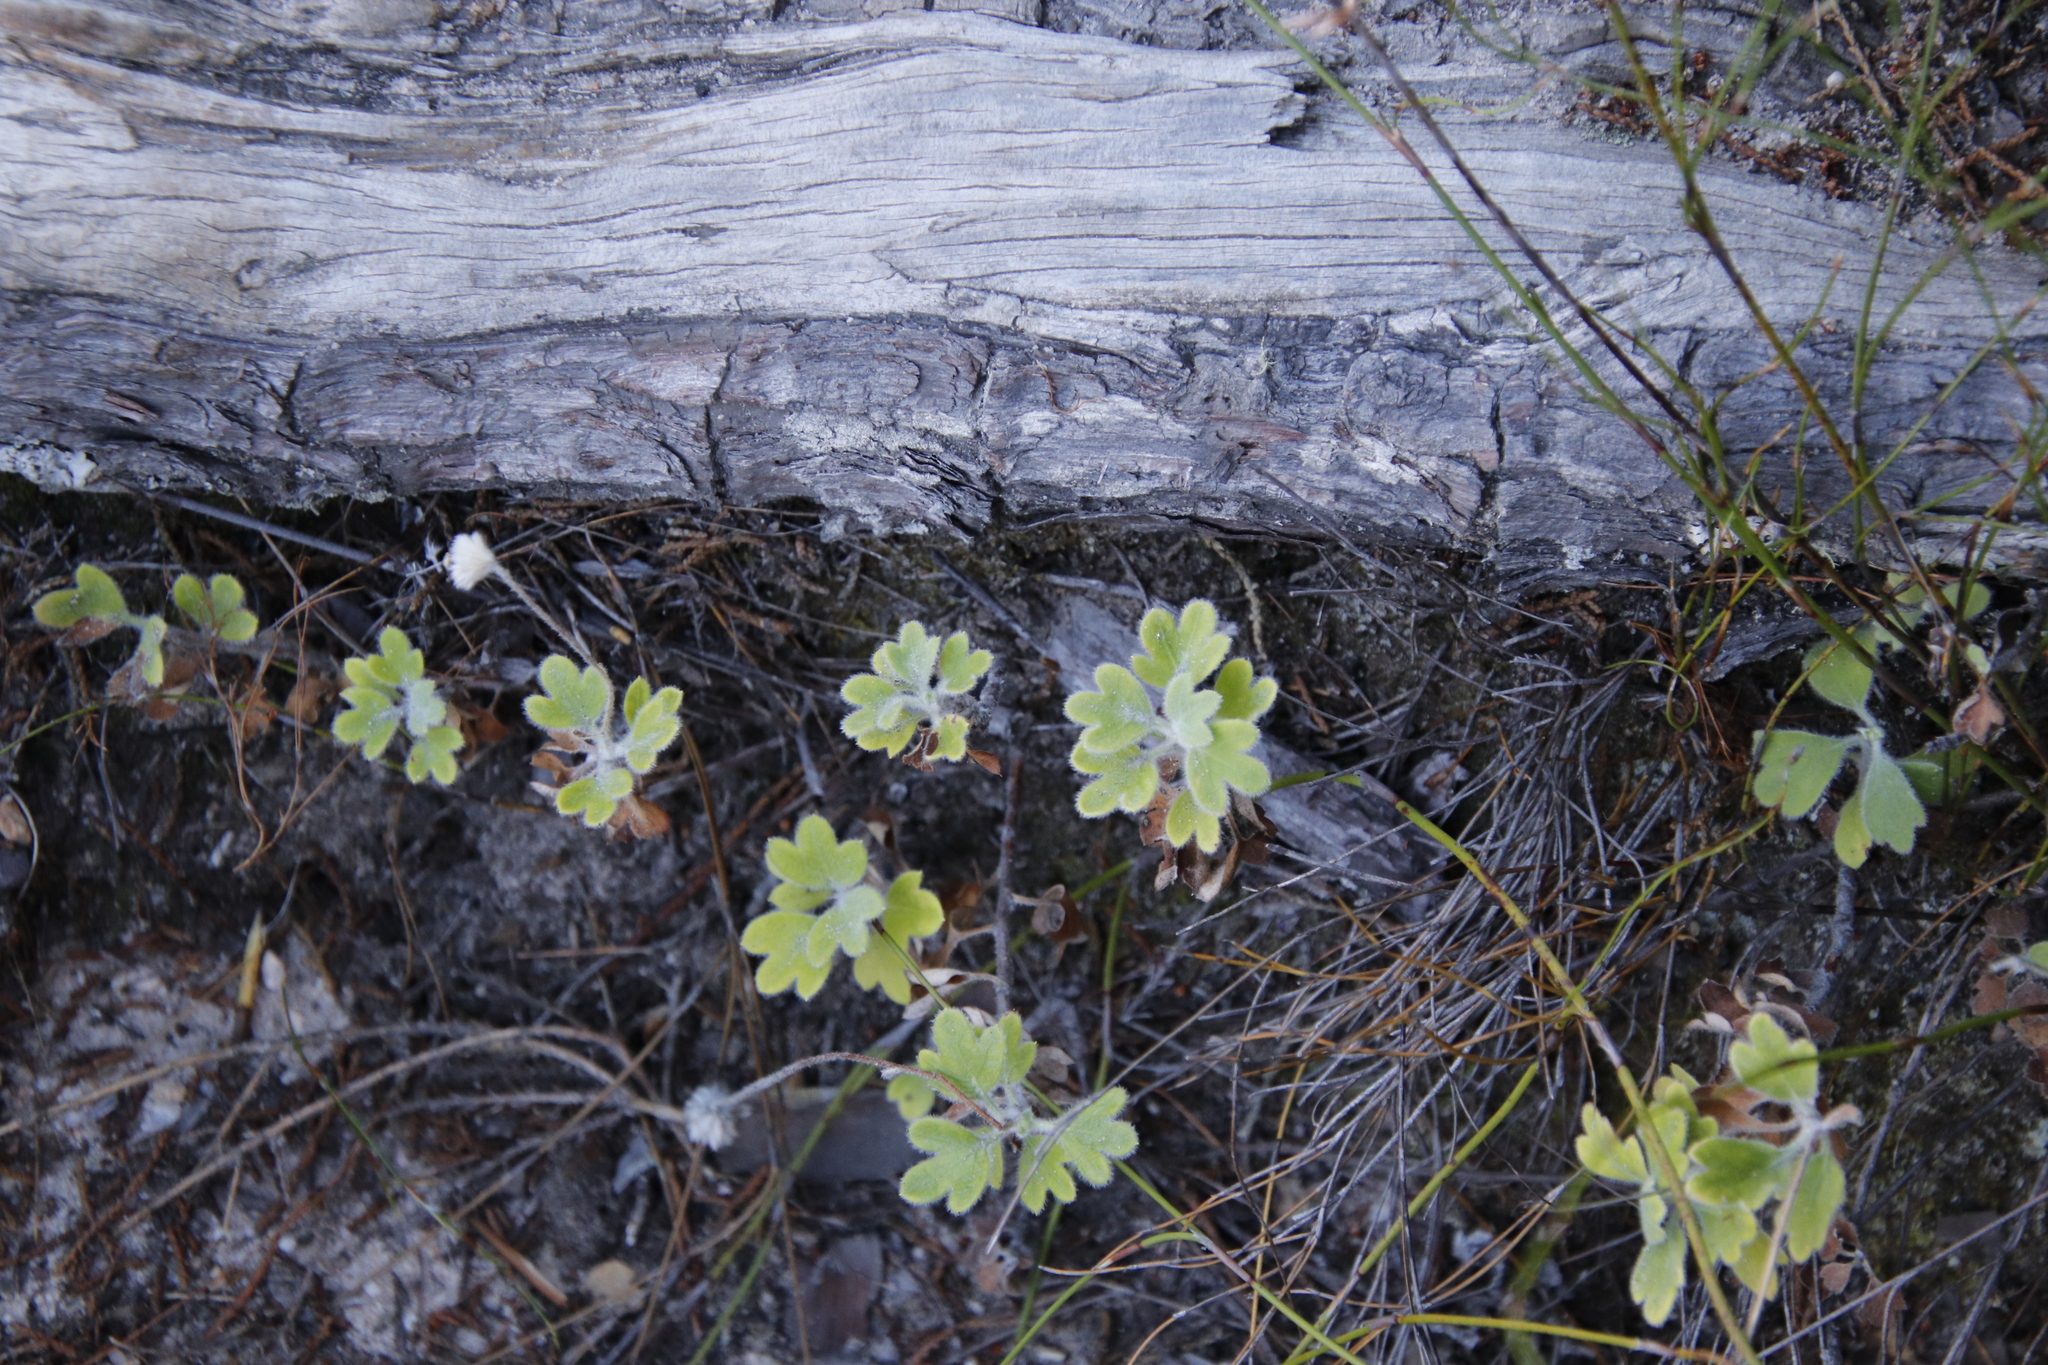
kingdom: Plantae
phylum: Tracheophyta
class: Magnoliopsida
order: Asterales
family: Asteraceae
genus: Lidbeckia
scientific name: Lidbeckia quinqueloba
